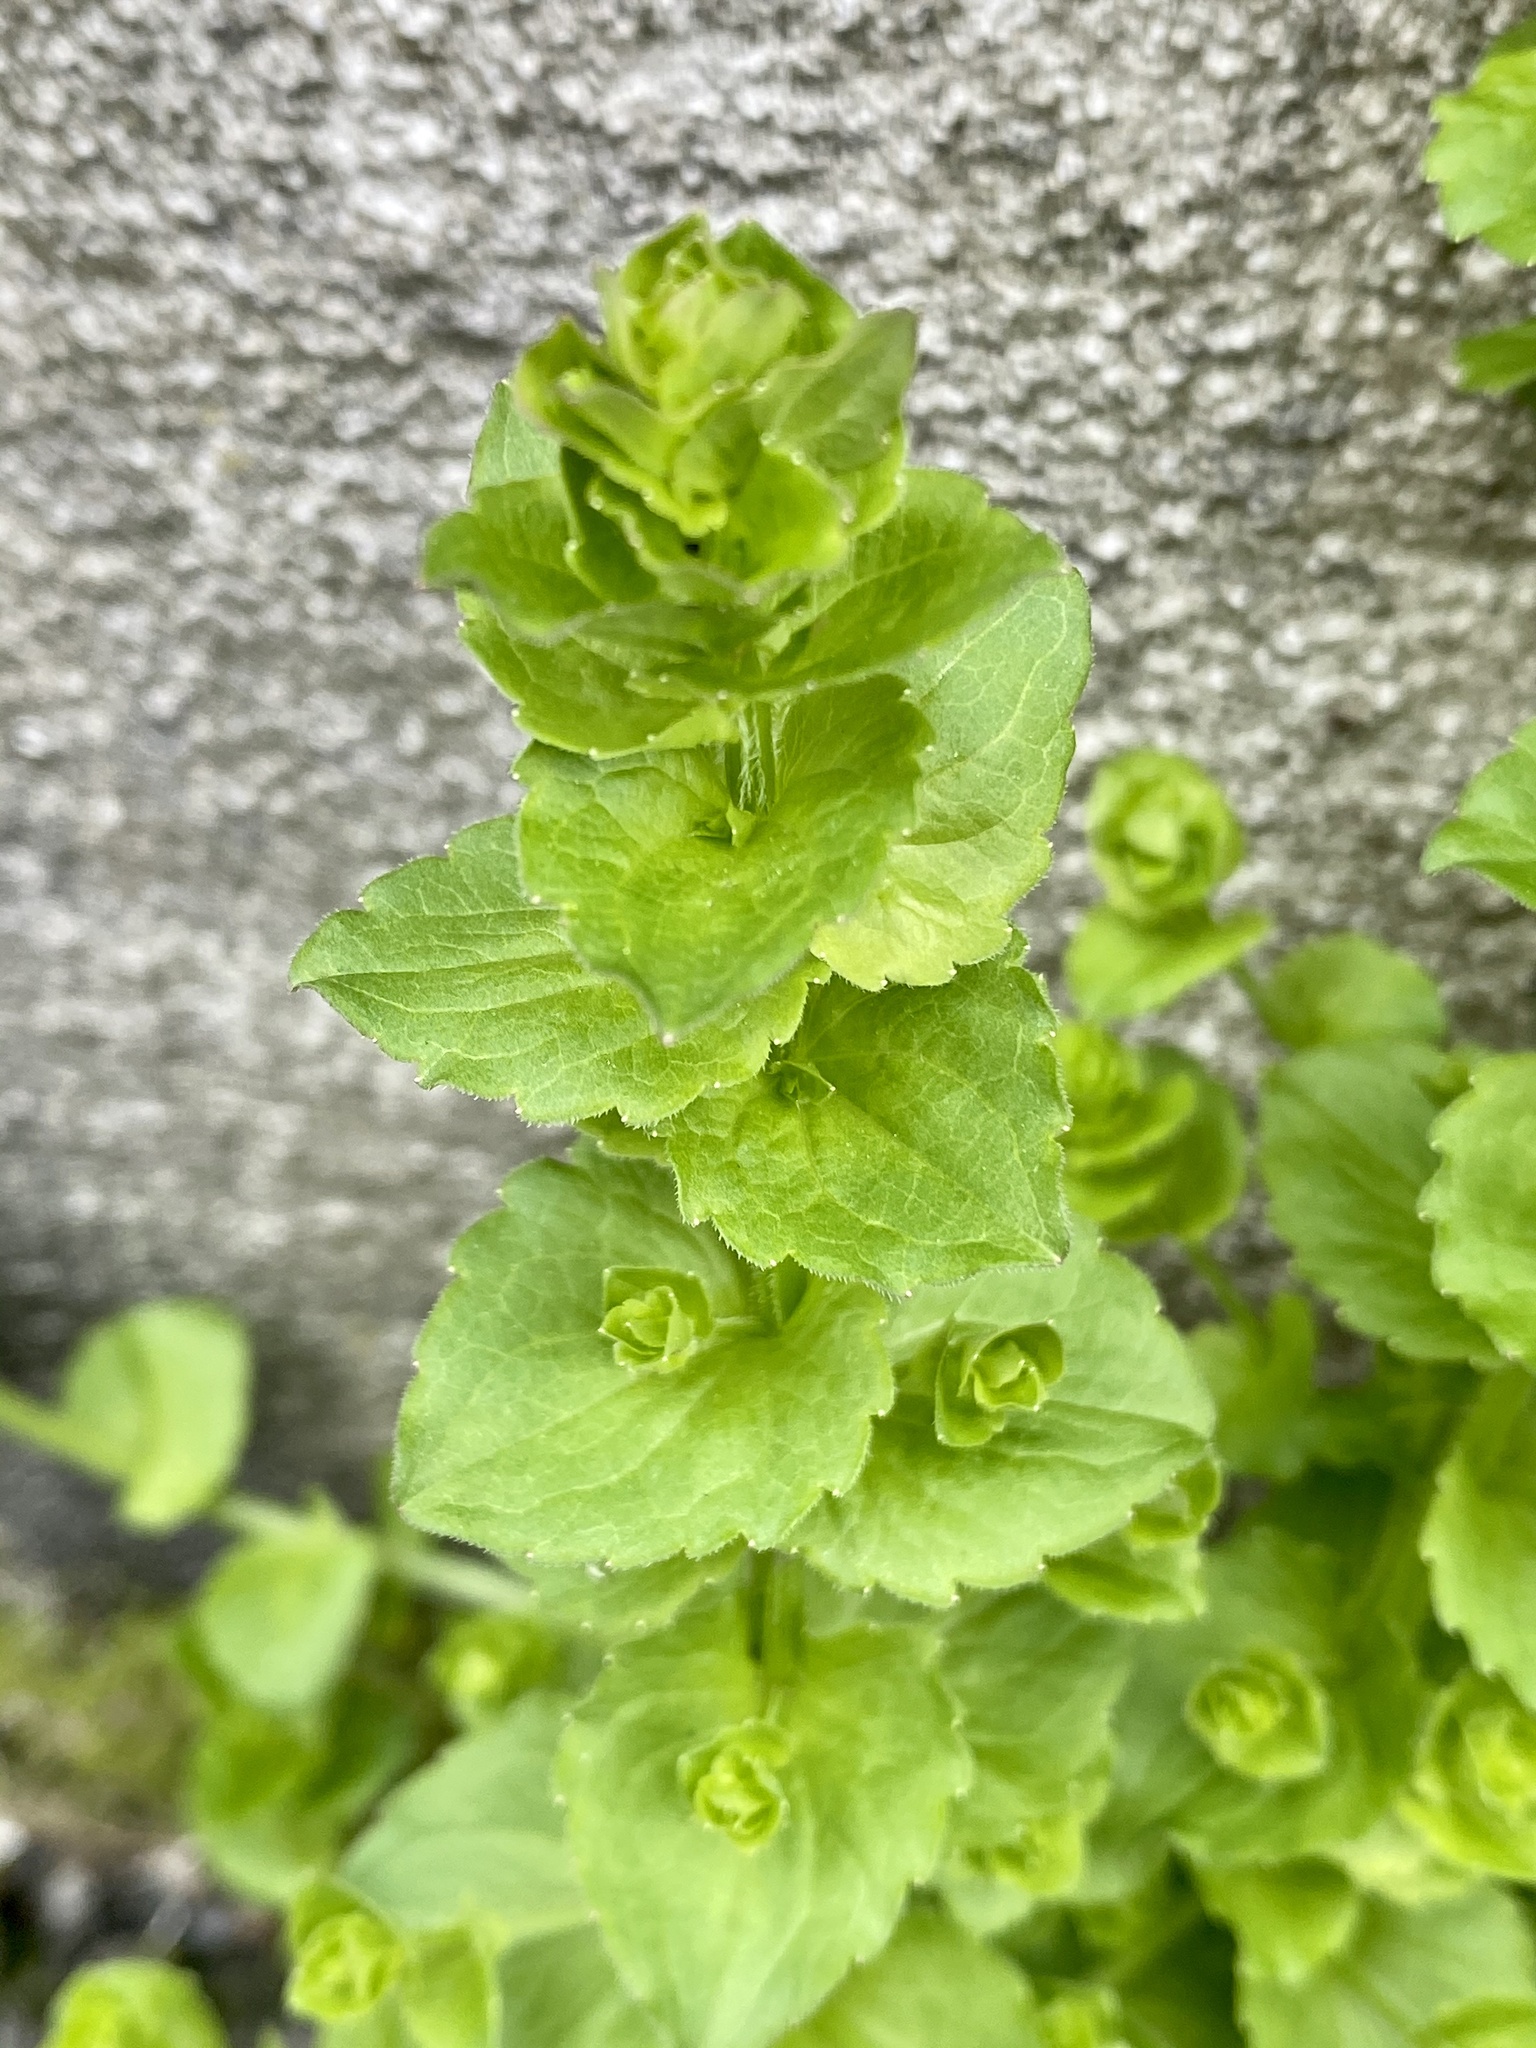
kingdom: Plantae
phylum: Tracheophyta
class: Magnoliopsida
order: Asterales
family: Campanulaceae
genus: Triodanis
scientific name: Triodanis perfoliata
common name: Clasping venus' looking-glass
